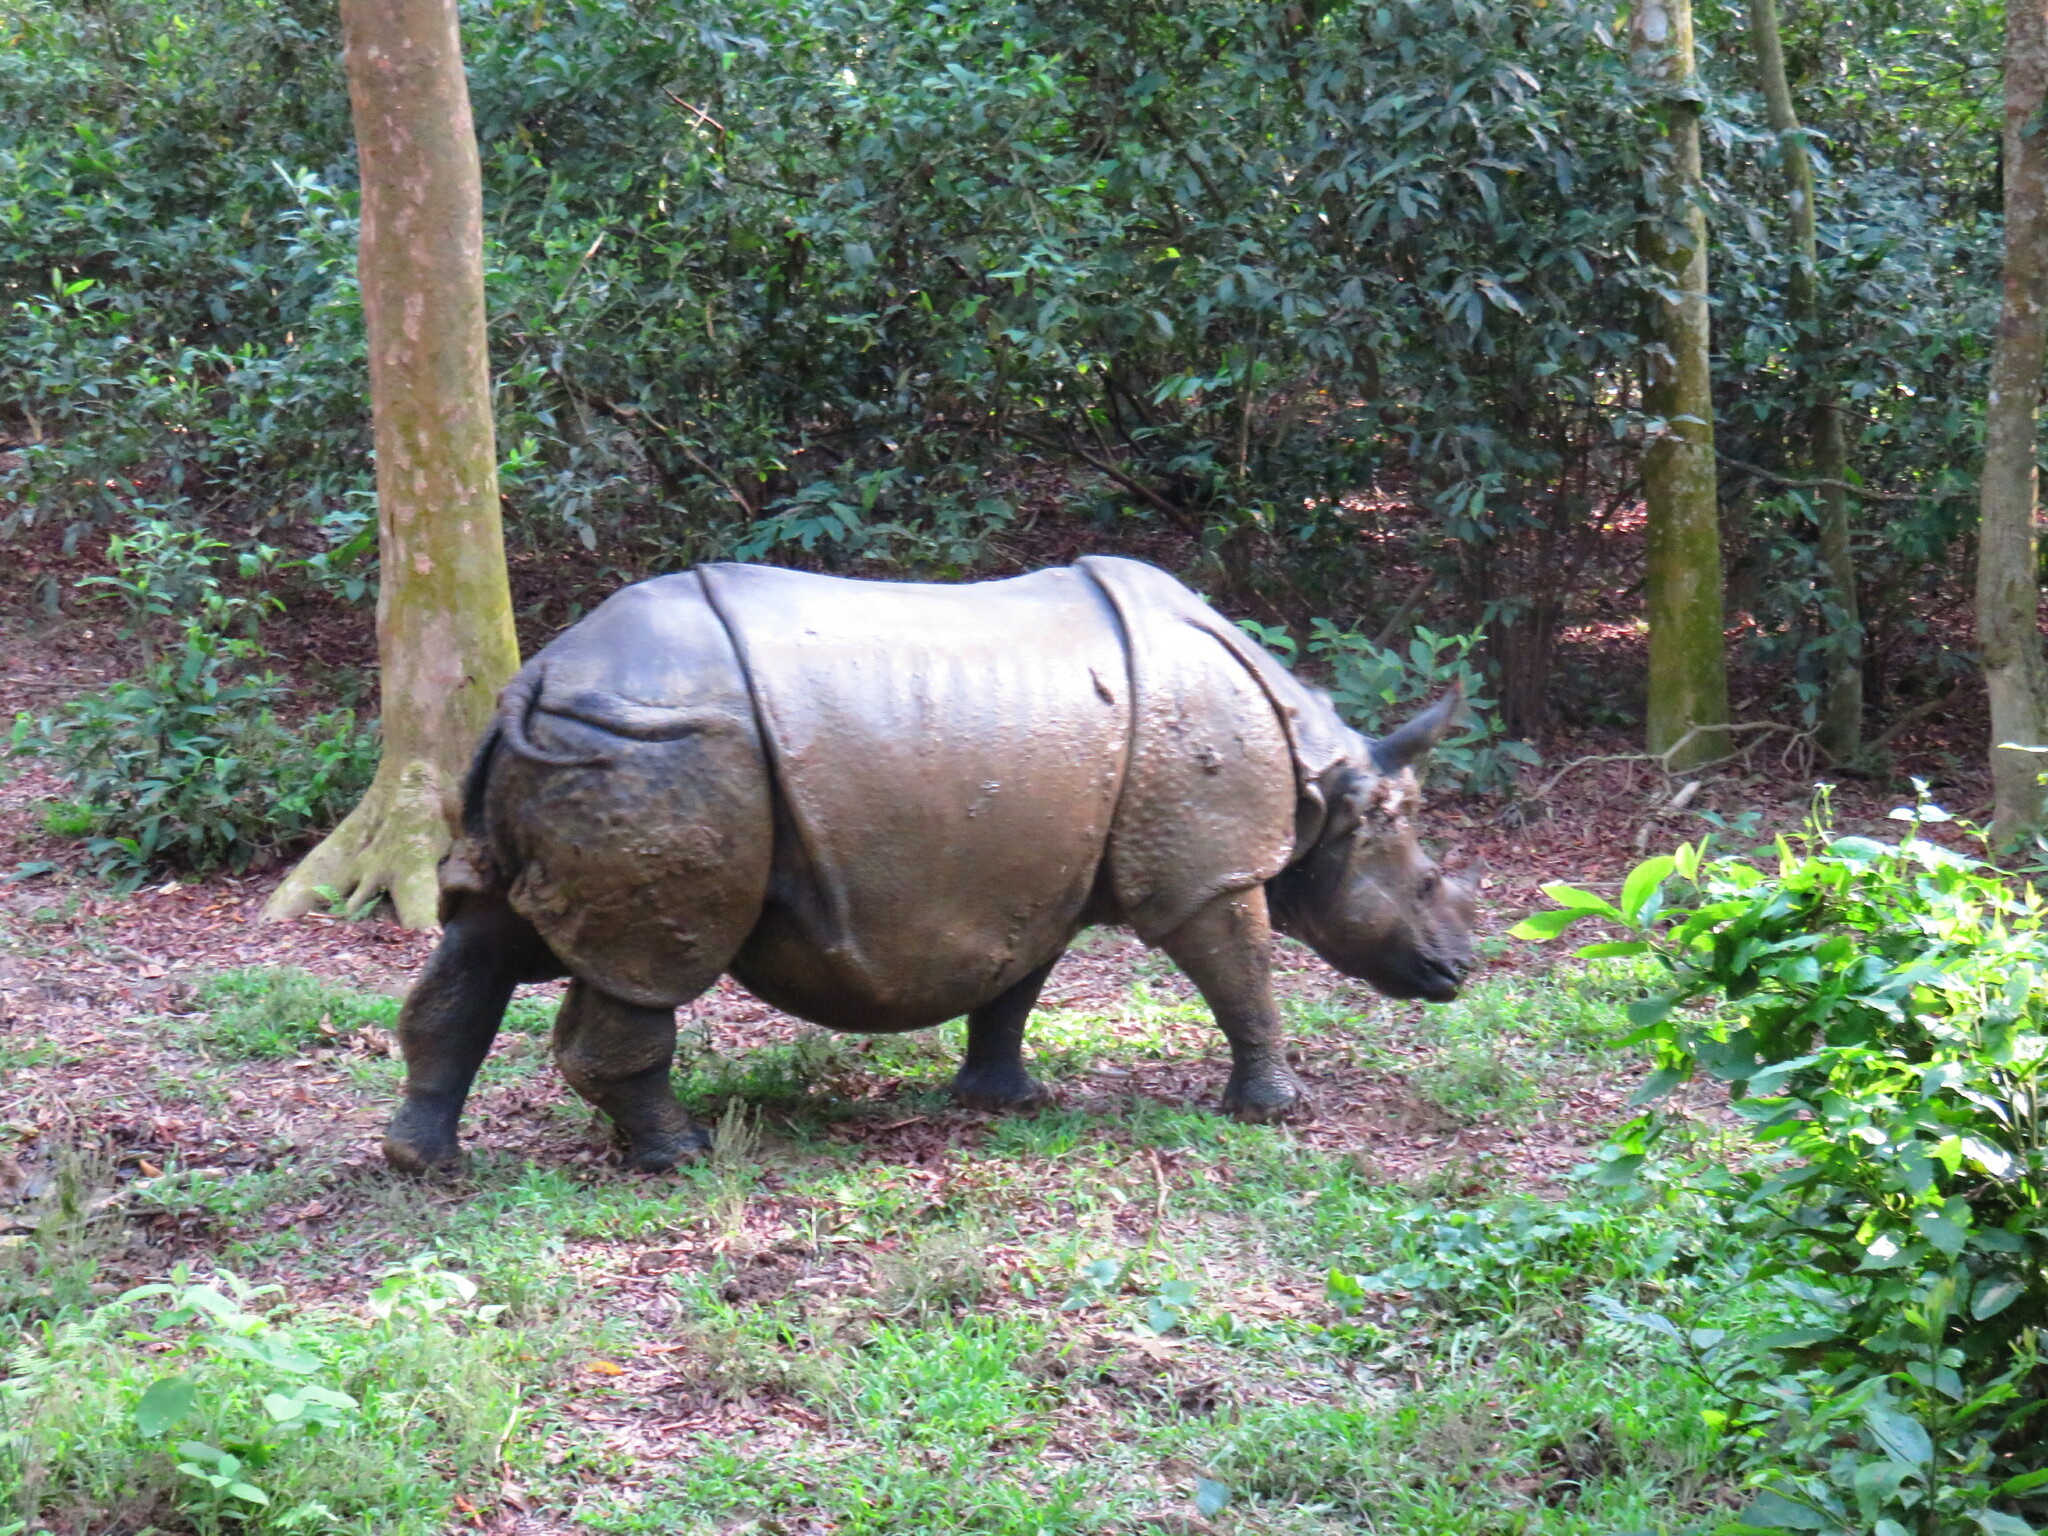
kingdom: Animalia
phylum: Chordata
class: Mammalia
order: Perissodactyla
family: Rhinocerotidae
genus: Rhinoceros
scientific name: Rhinoceros unicornis
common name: Indian rhinoceros
